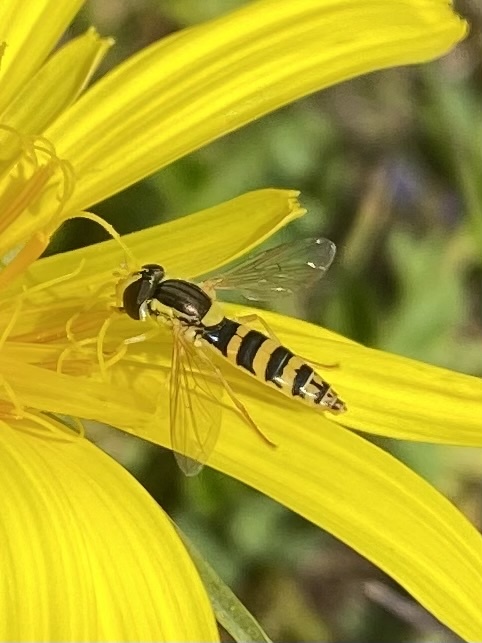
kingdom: Animalia
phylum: Arthropoda
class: Insecta
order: Diptera
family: Syrphidae
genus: Sphaerophoria
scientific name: Sphaerophoria
